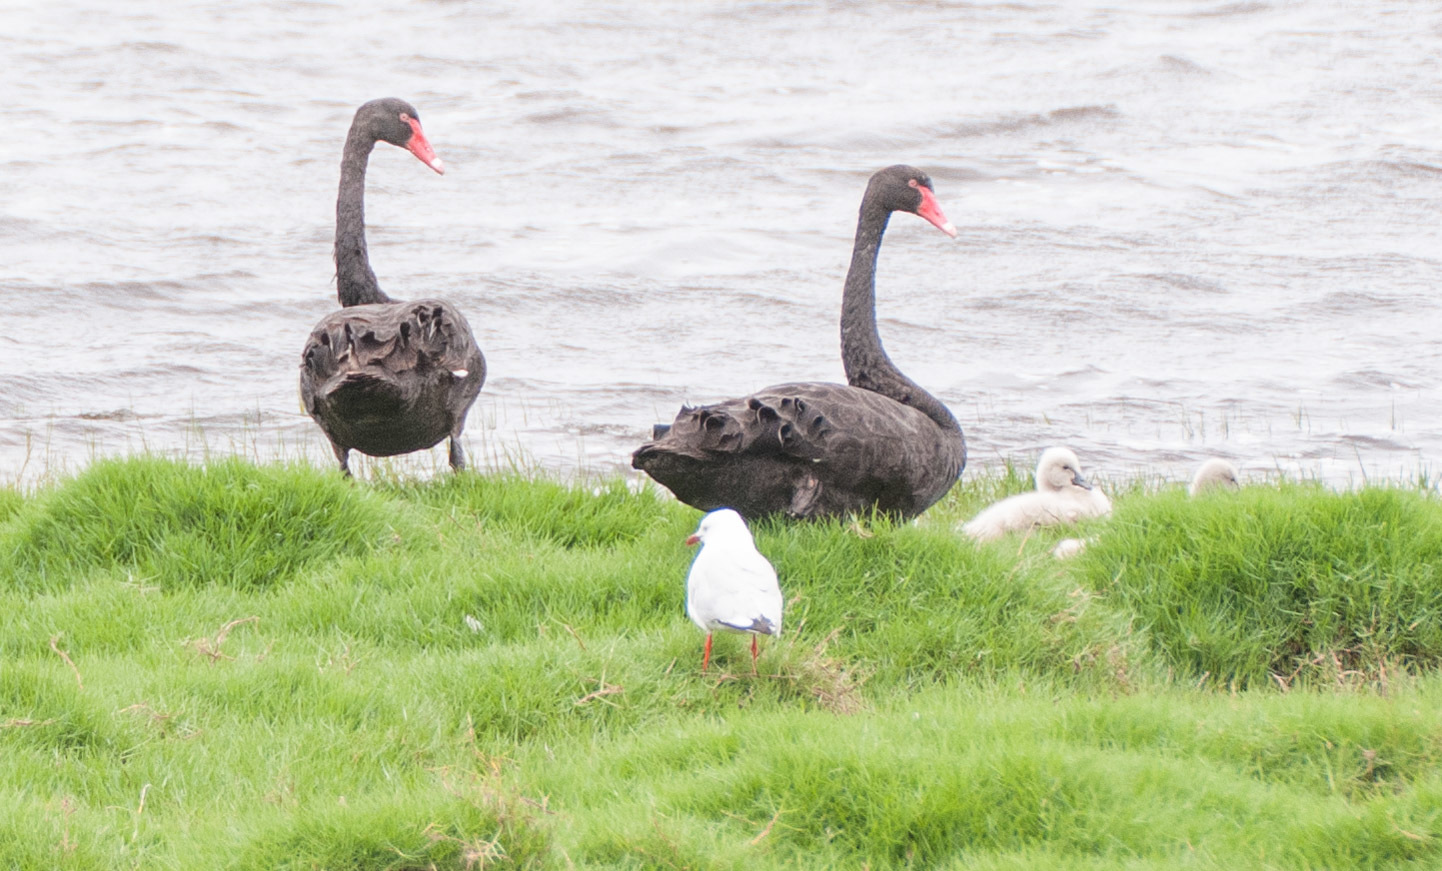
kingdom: Animalia
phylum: Chordata
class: Aves
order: Anseriformes
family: Anatidae
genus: Cygnus
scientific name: Cygnus atratus
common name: Black swan
